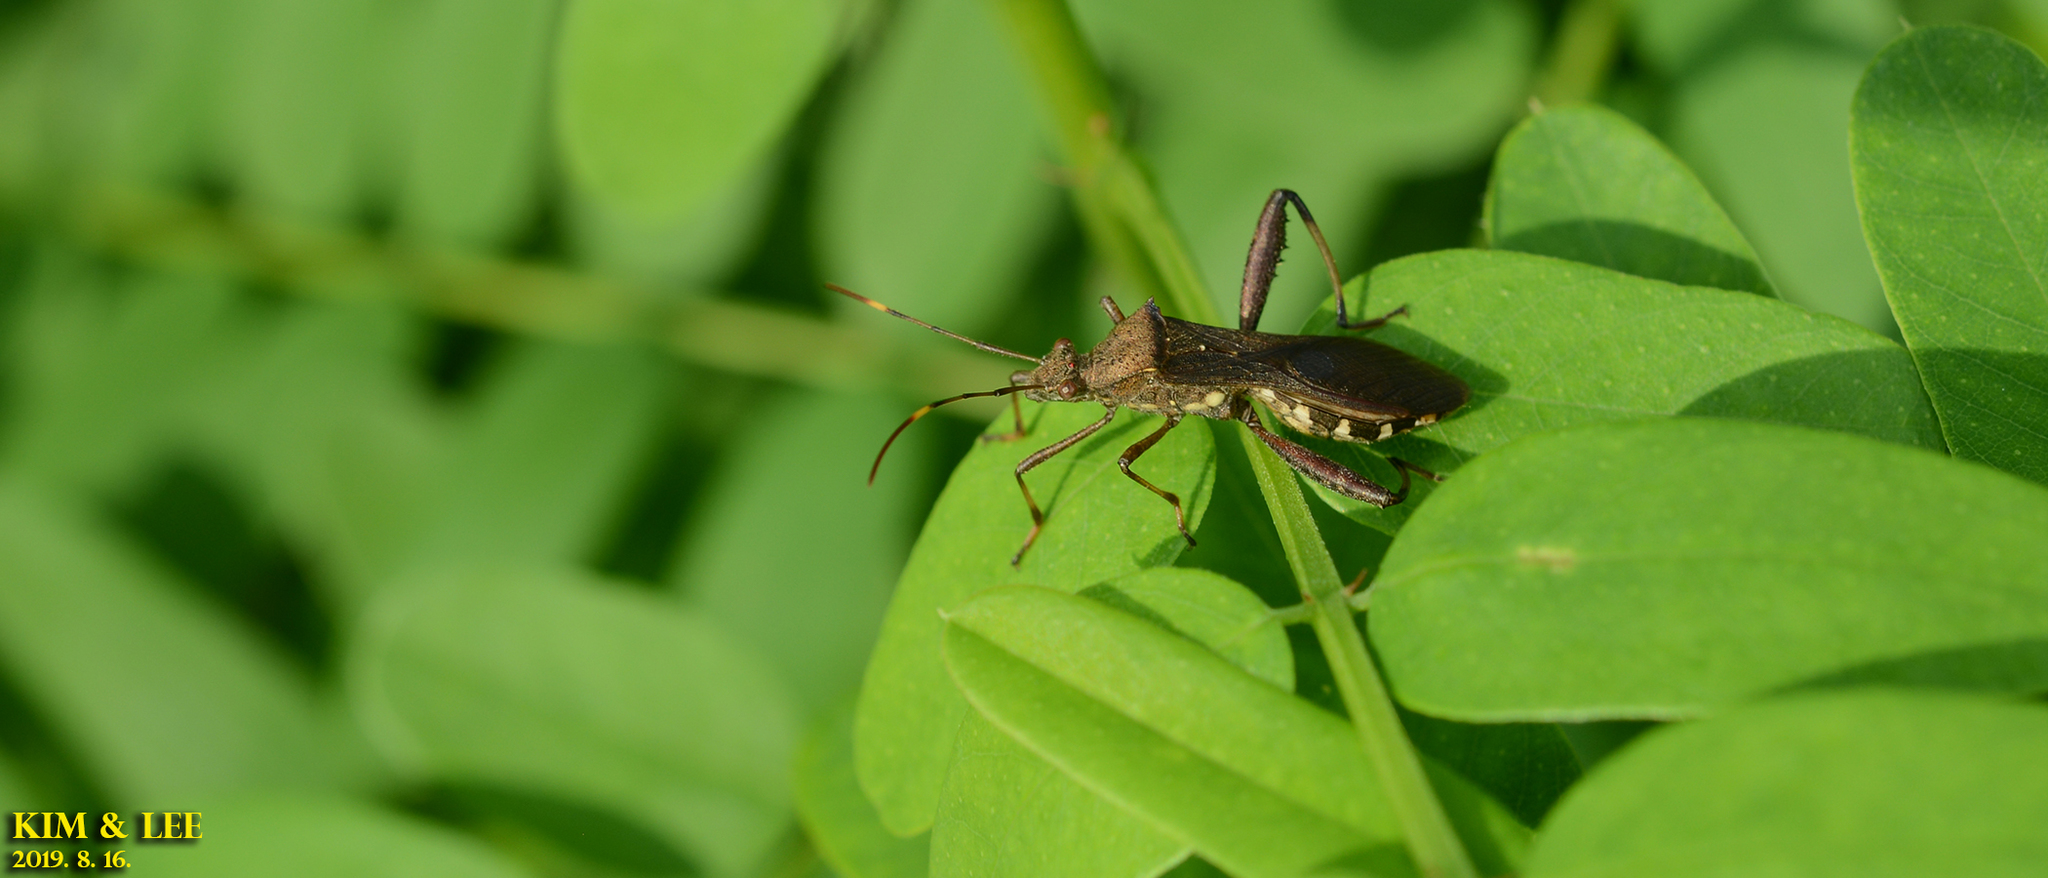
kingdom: Animalia
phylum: Arthropoda
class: Insecta
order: Hemiptera
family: Alydidae
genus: Riptortus
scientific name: Riptortus pedestris
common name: Bean bug
